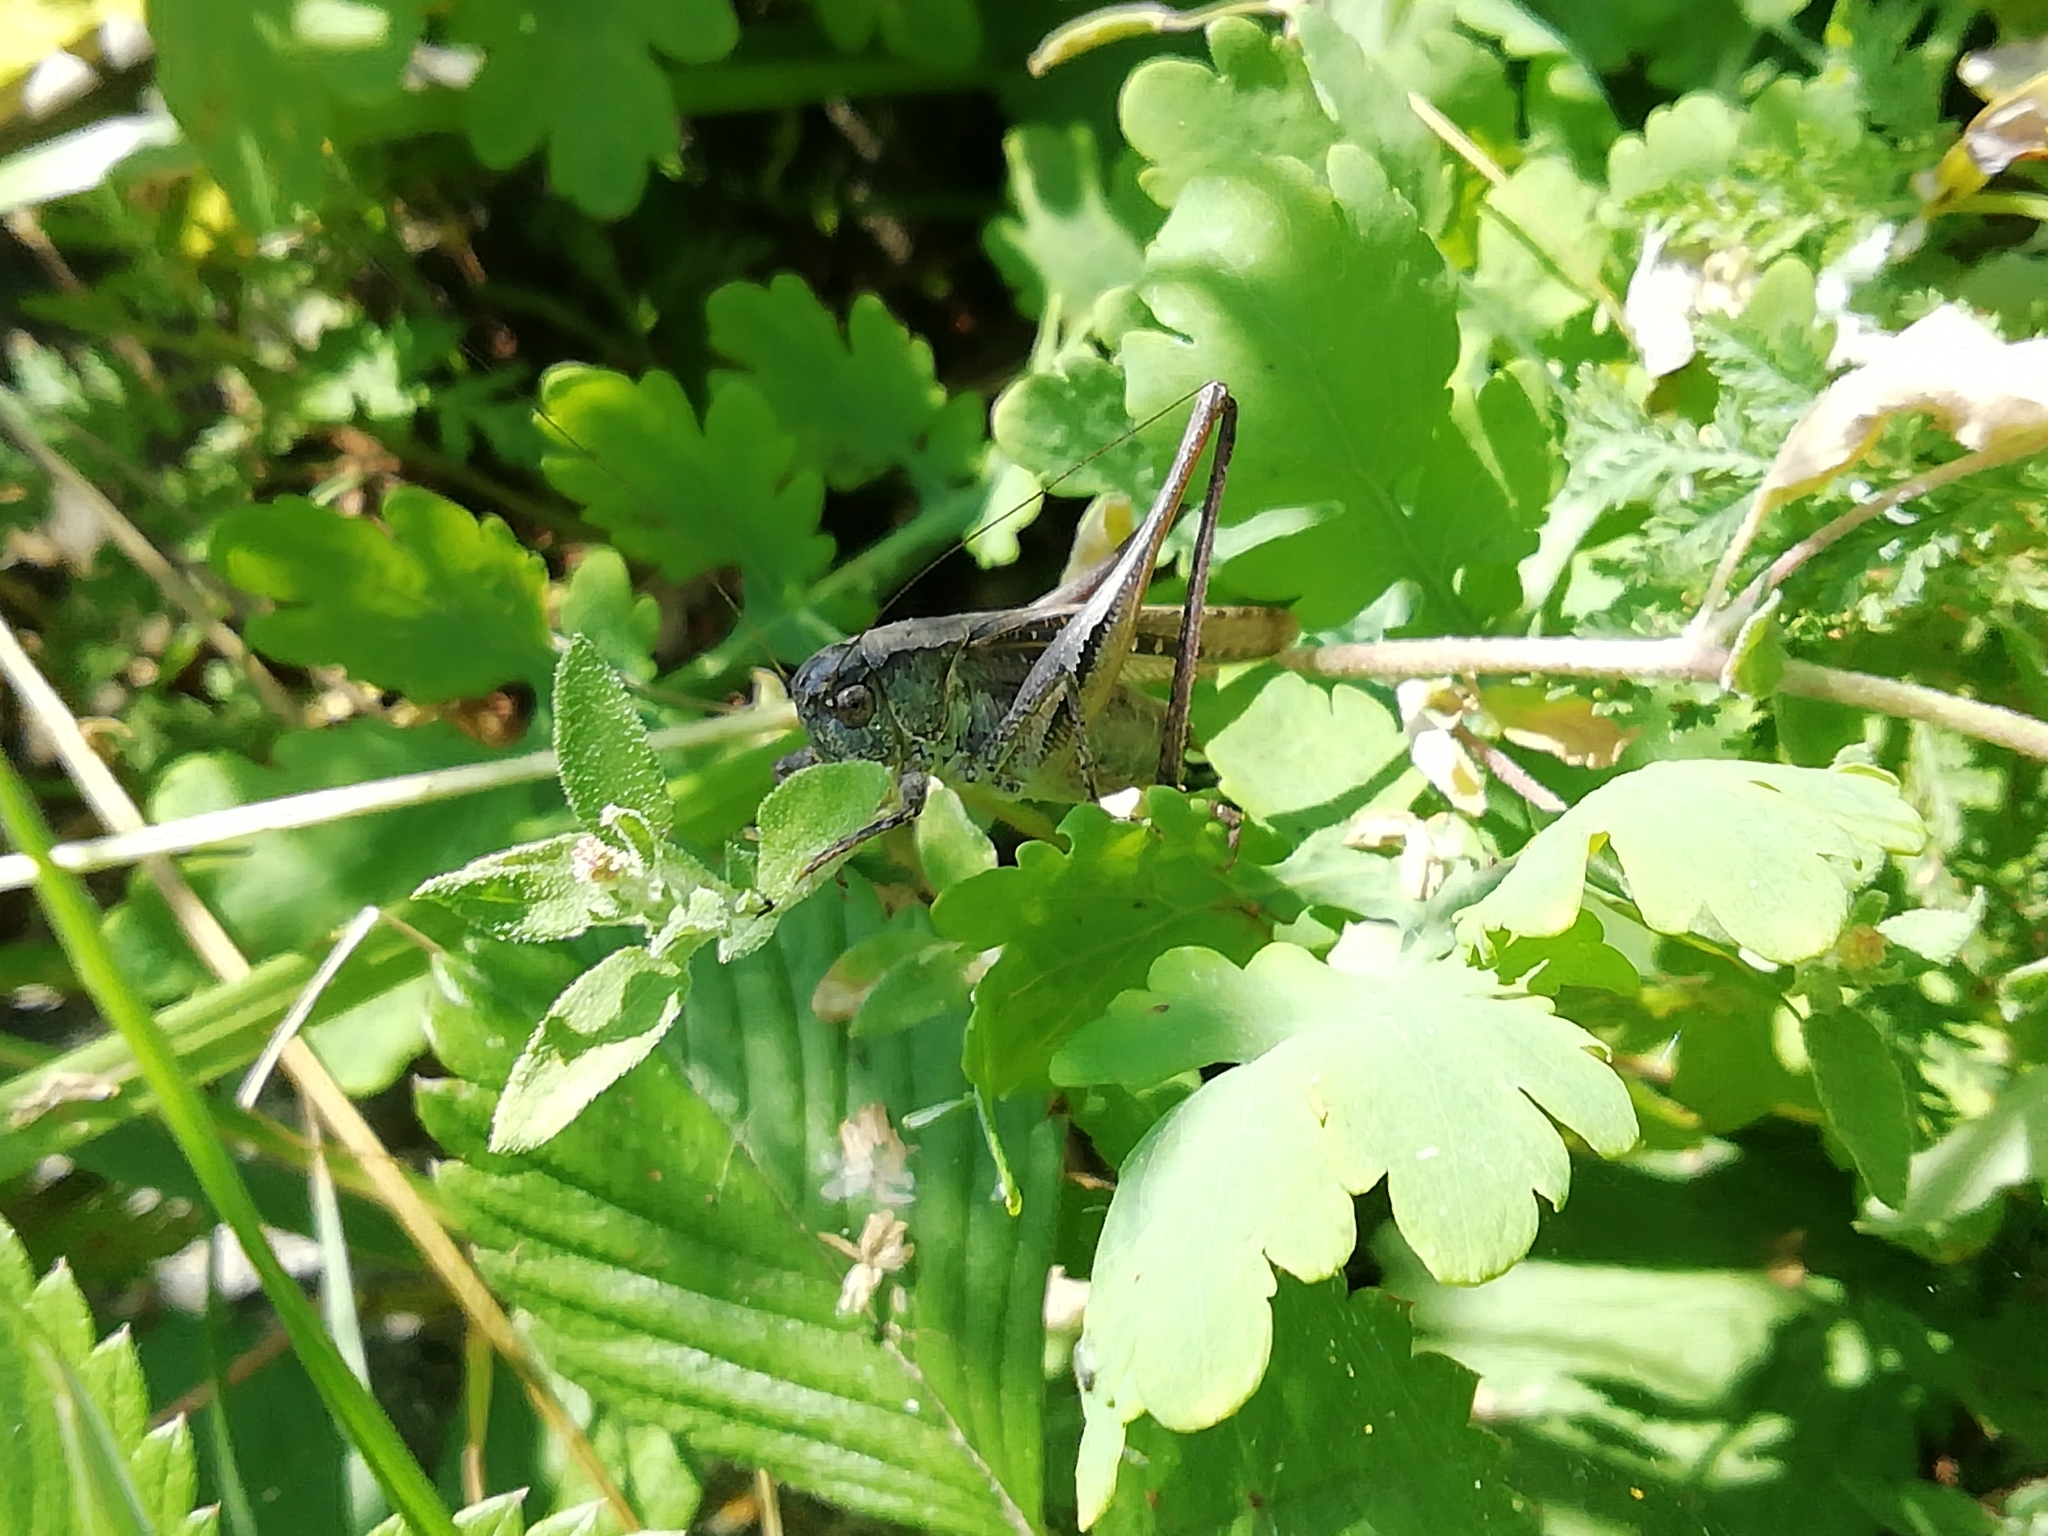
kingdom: Animalia
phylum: Arthropoda
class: Insecta
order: Orthoptera
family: Tettigoniidae
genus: Platycleis
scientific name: Platycleis intermedia
